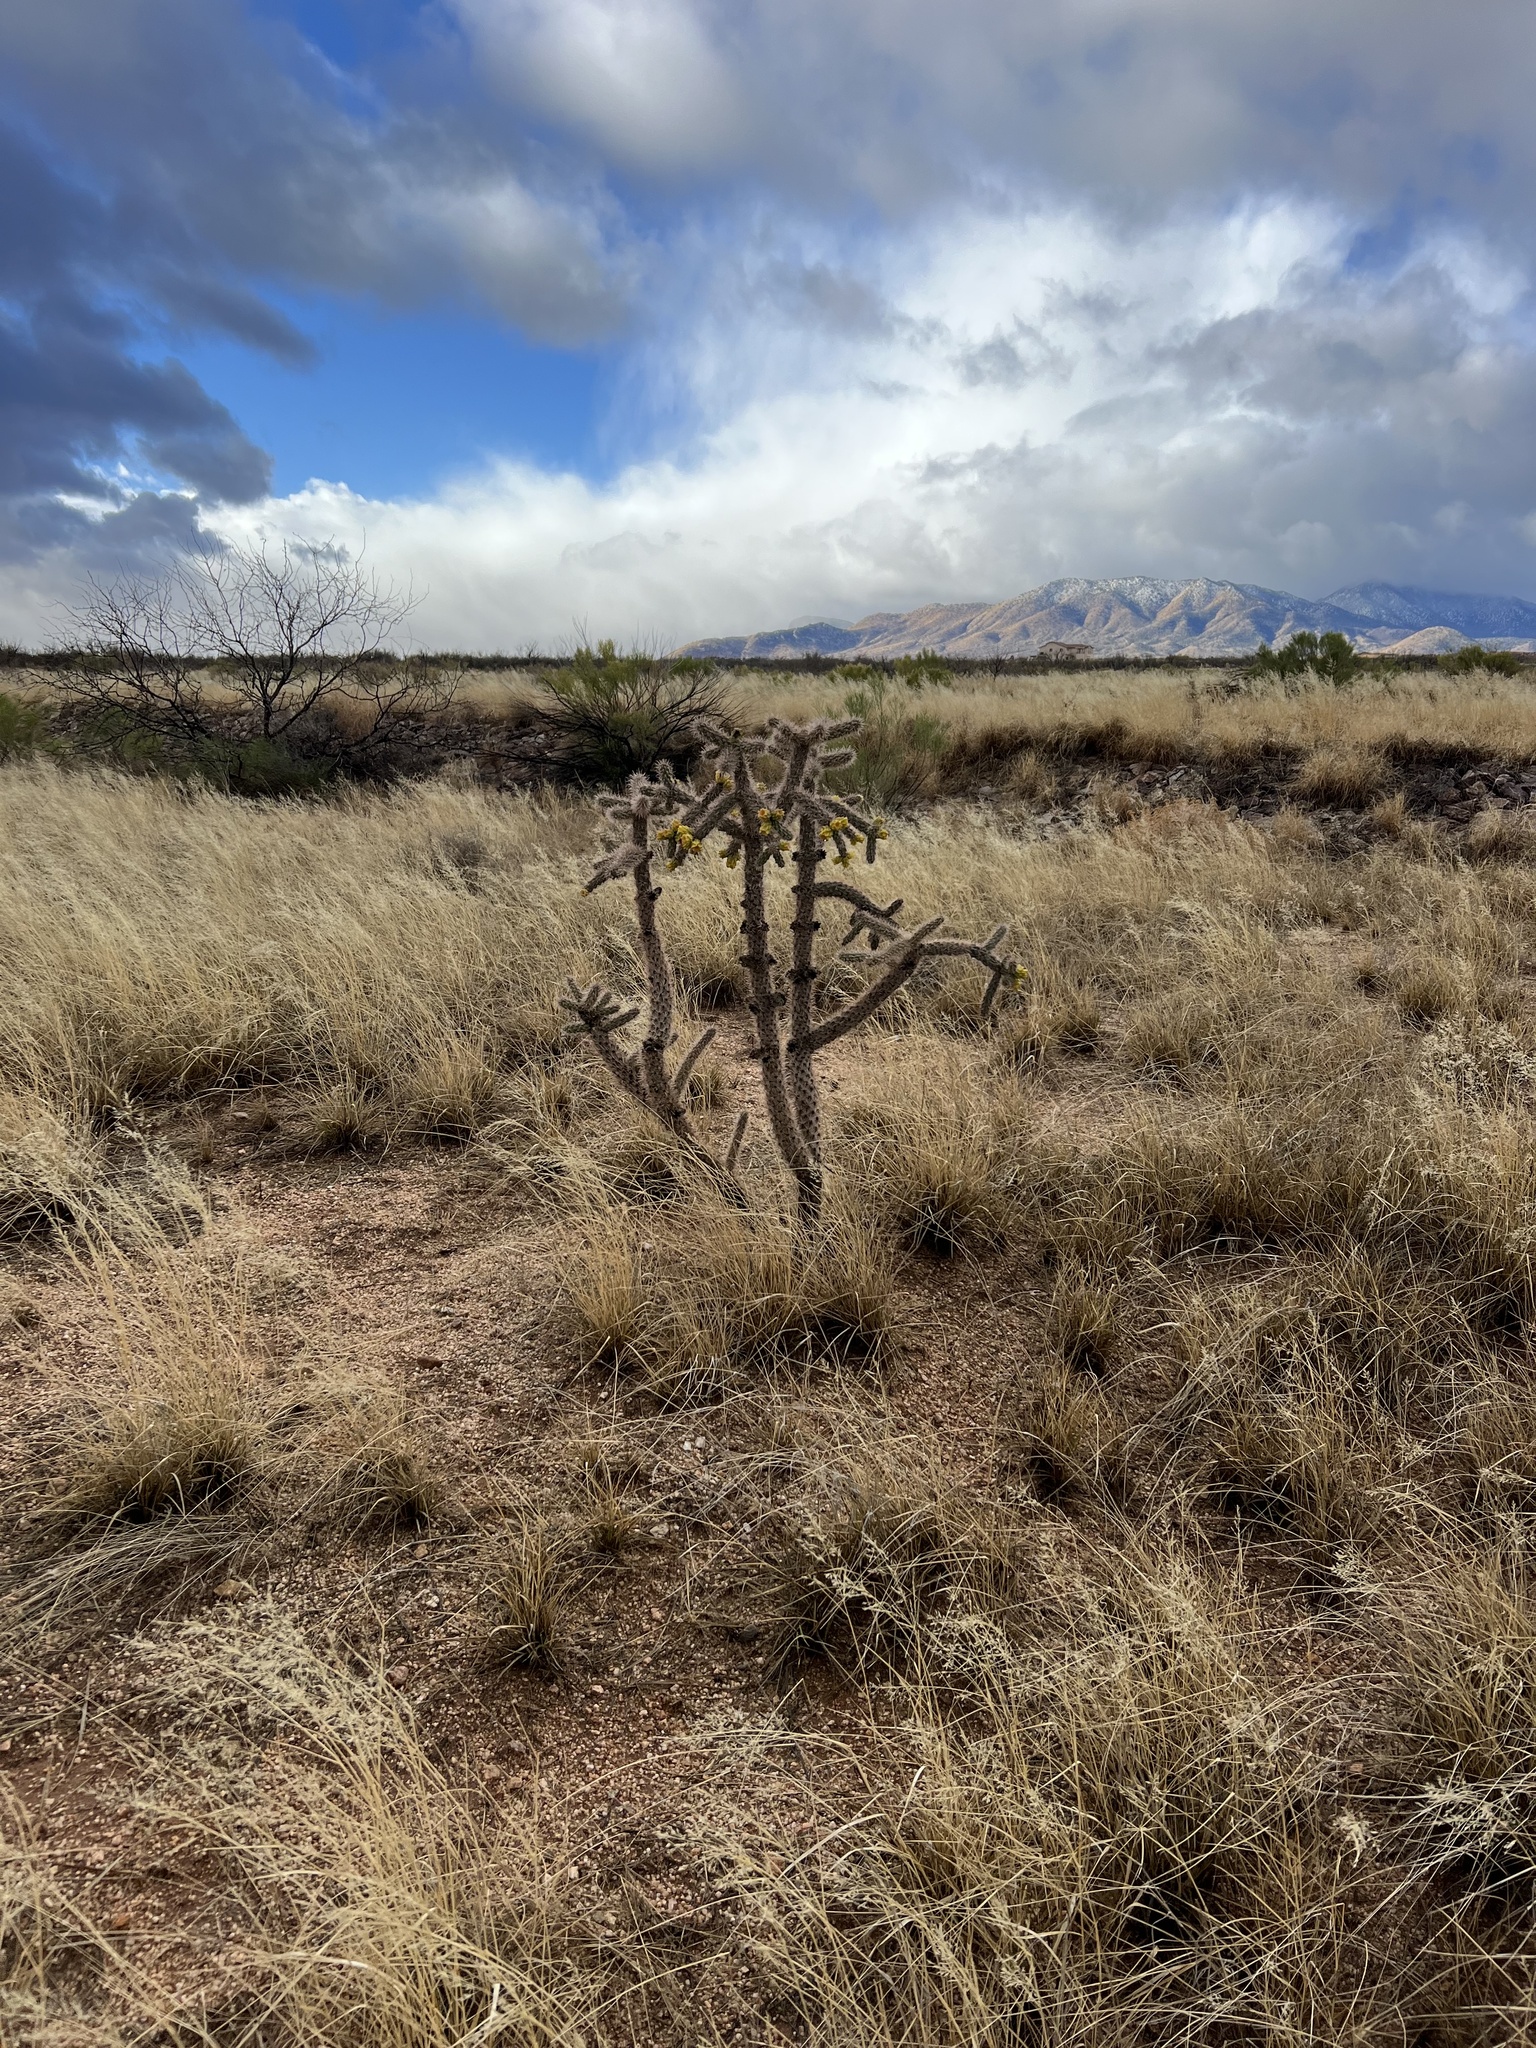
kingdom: Plantae
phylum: Tracheophyta
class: Magnoliopsida
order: Caryophyllales
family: Cactaceae
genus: Cylindropuntia
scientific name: Cylindropuntia imbricata
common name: Candelabrum cactus
